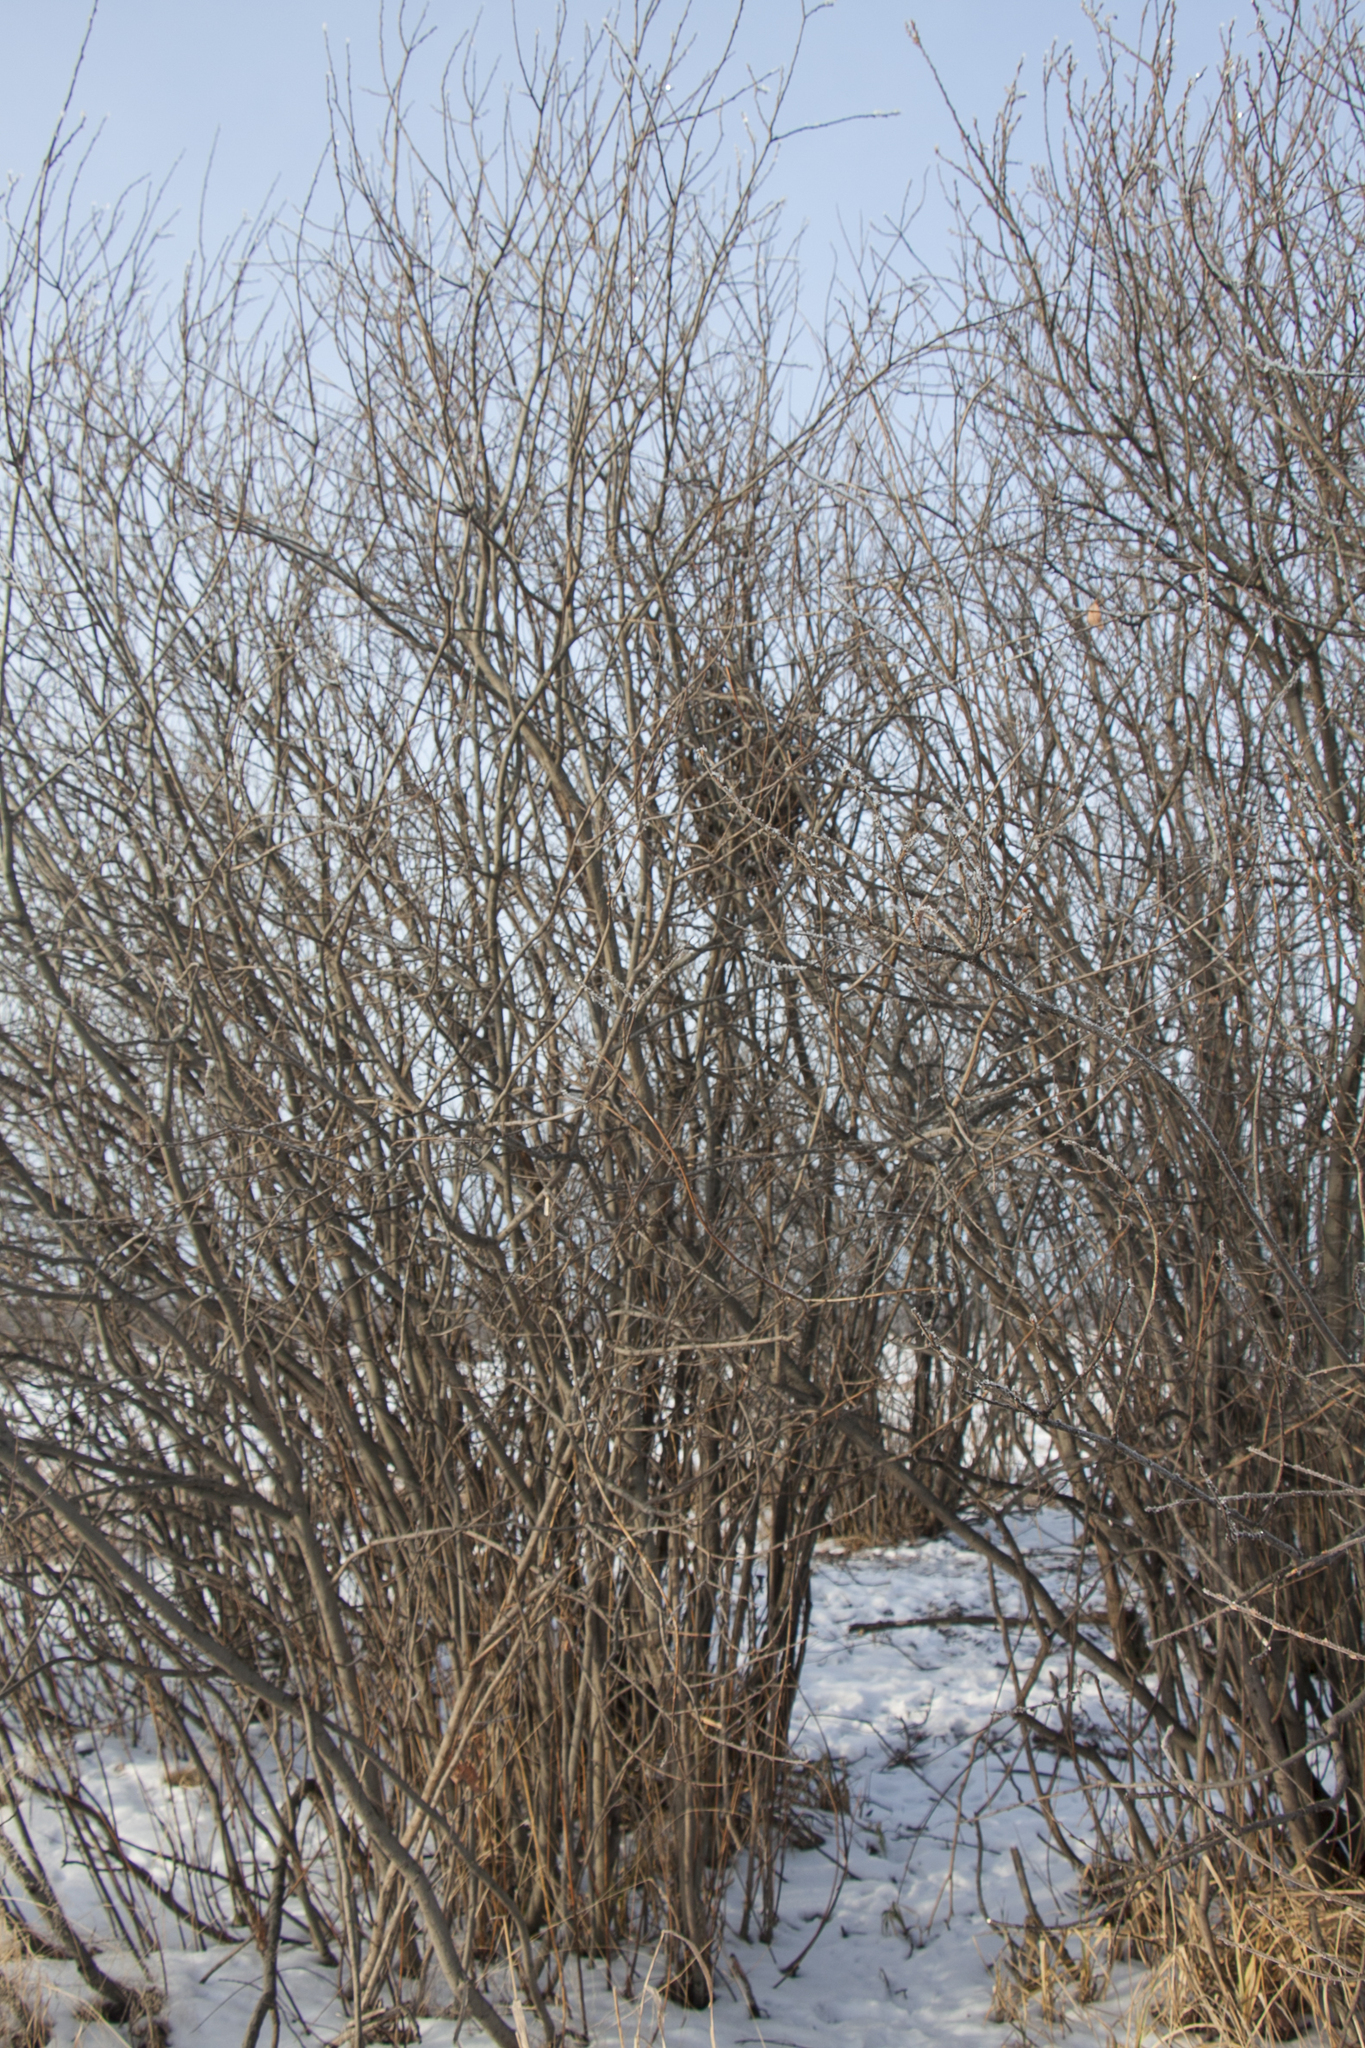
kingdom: Animalia
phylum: Chordata
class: Aves
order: Passeriformes
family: Corvidae
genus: Pica
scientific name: Pica pica
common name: Eurasian magpie
